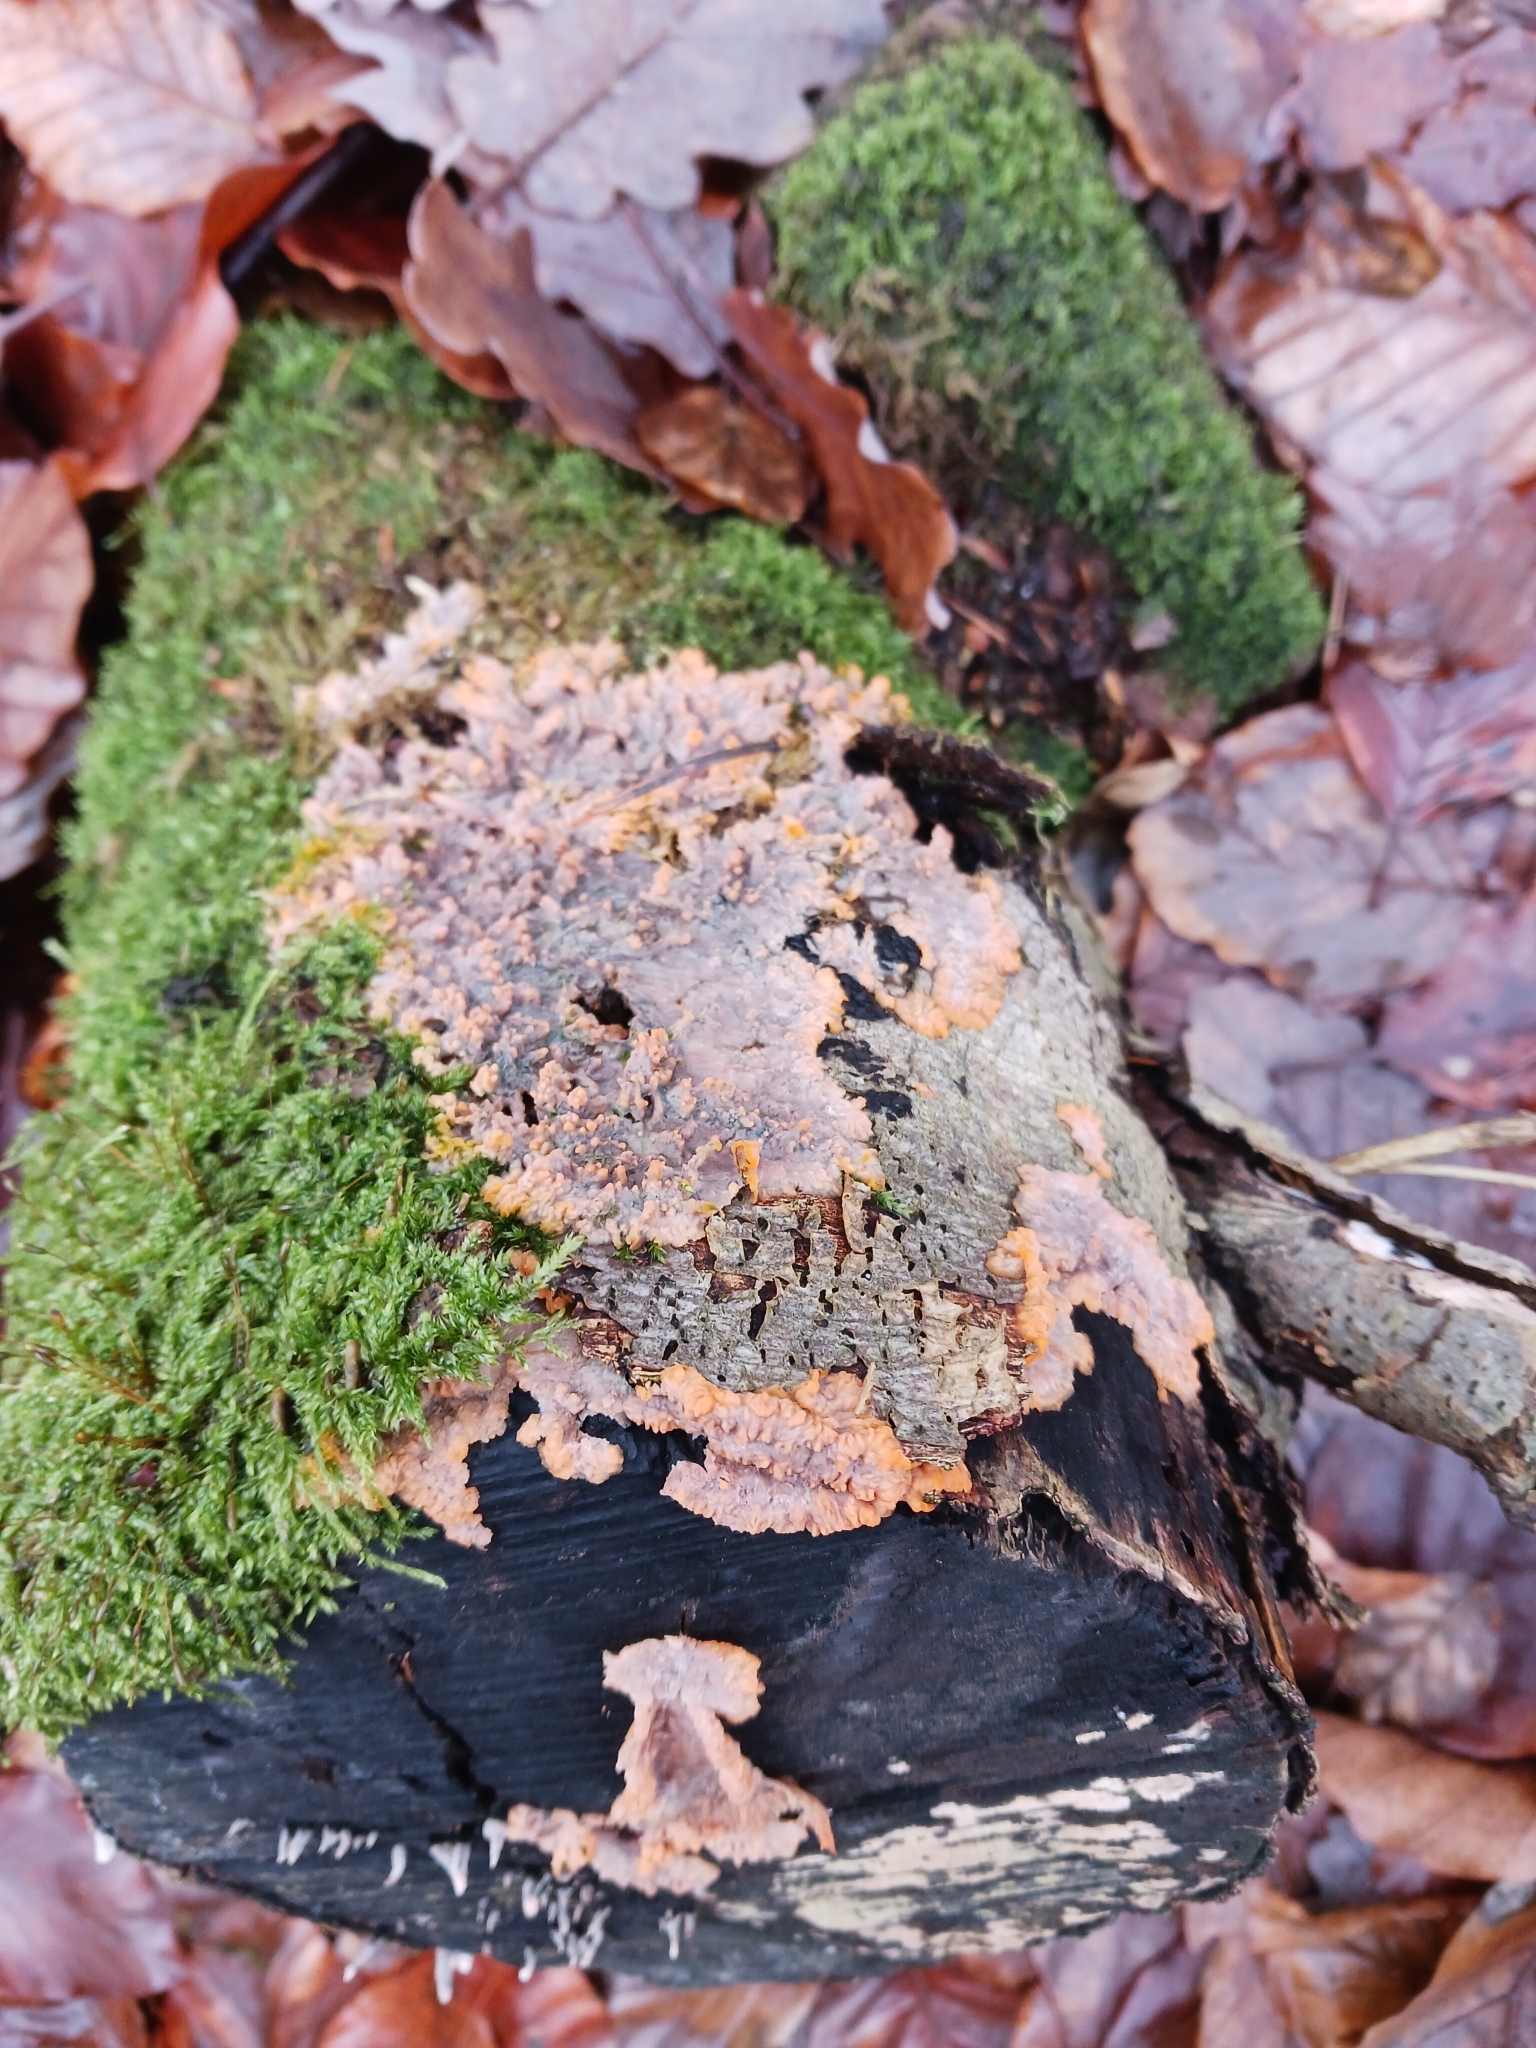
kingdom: Fungi
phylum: Basidiomycota
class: Agaricomycetes
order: Polyporales
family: Meruliaceae
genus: Phlebia
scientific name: Phlebia radiata
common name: Wrinkled crust
